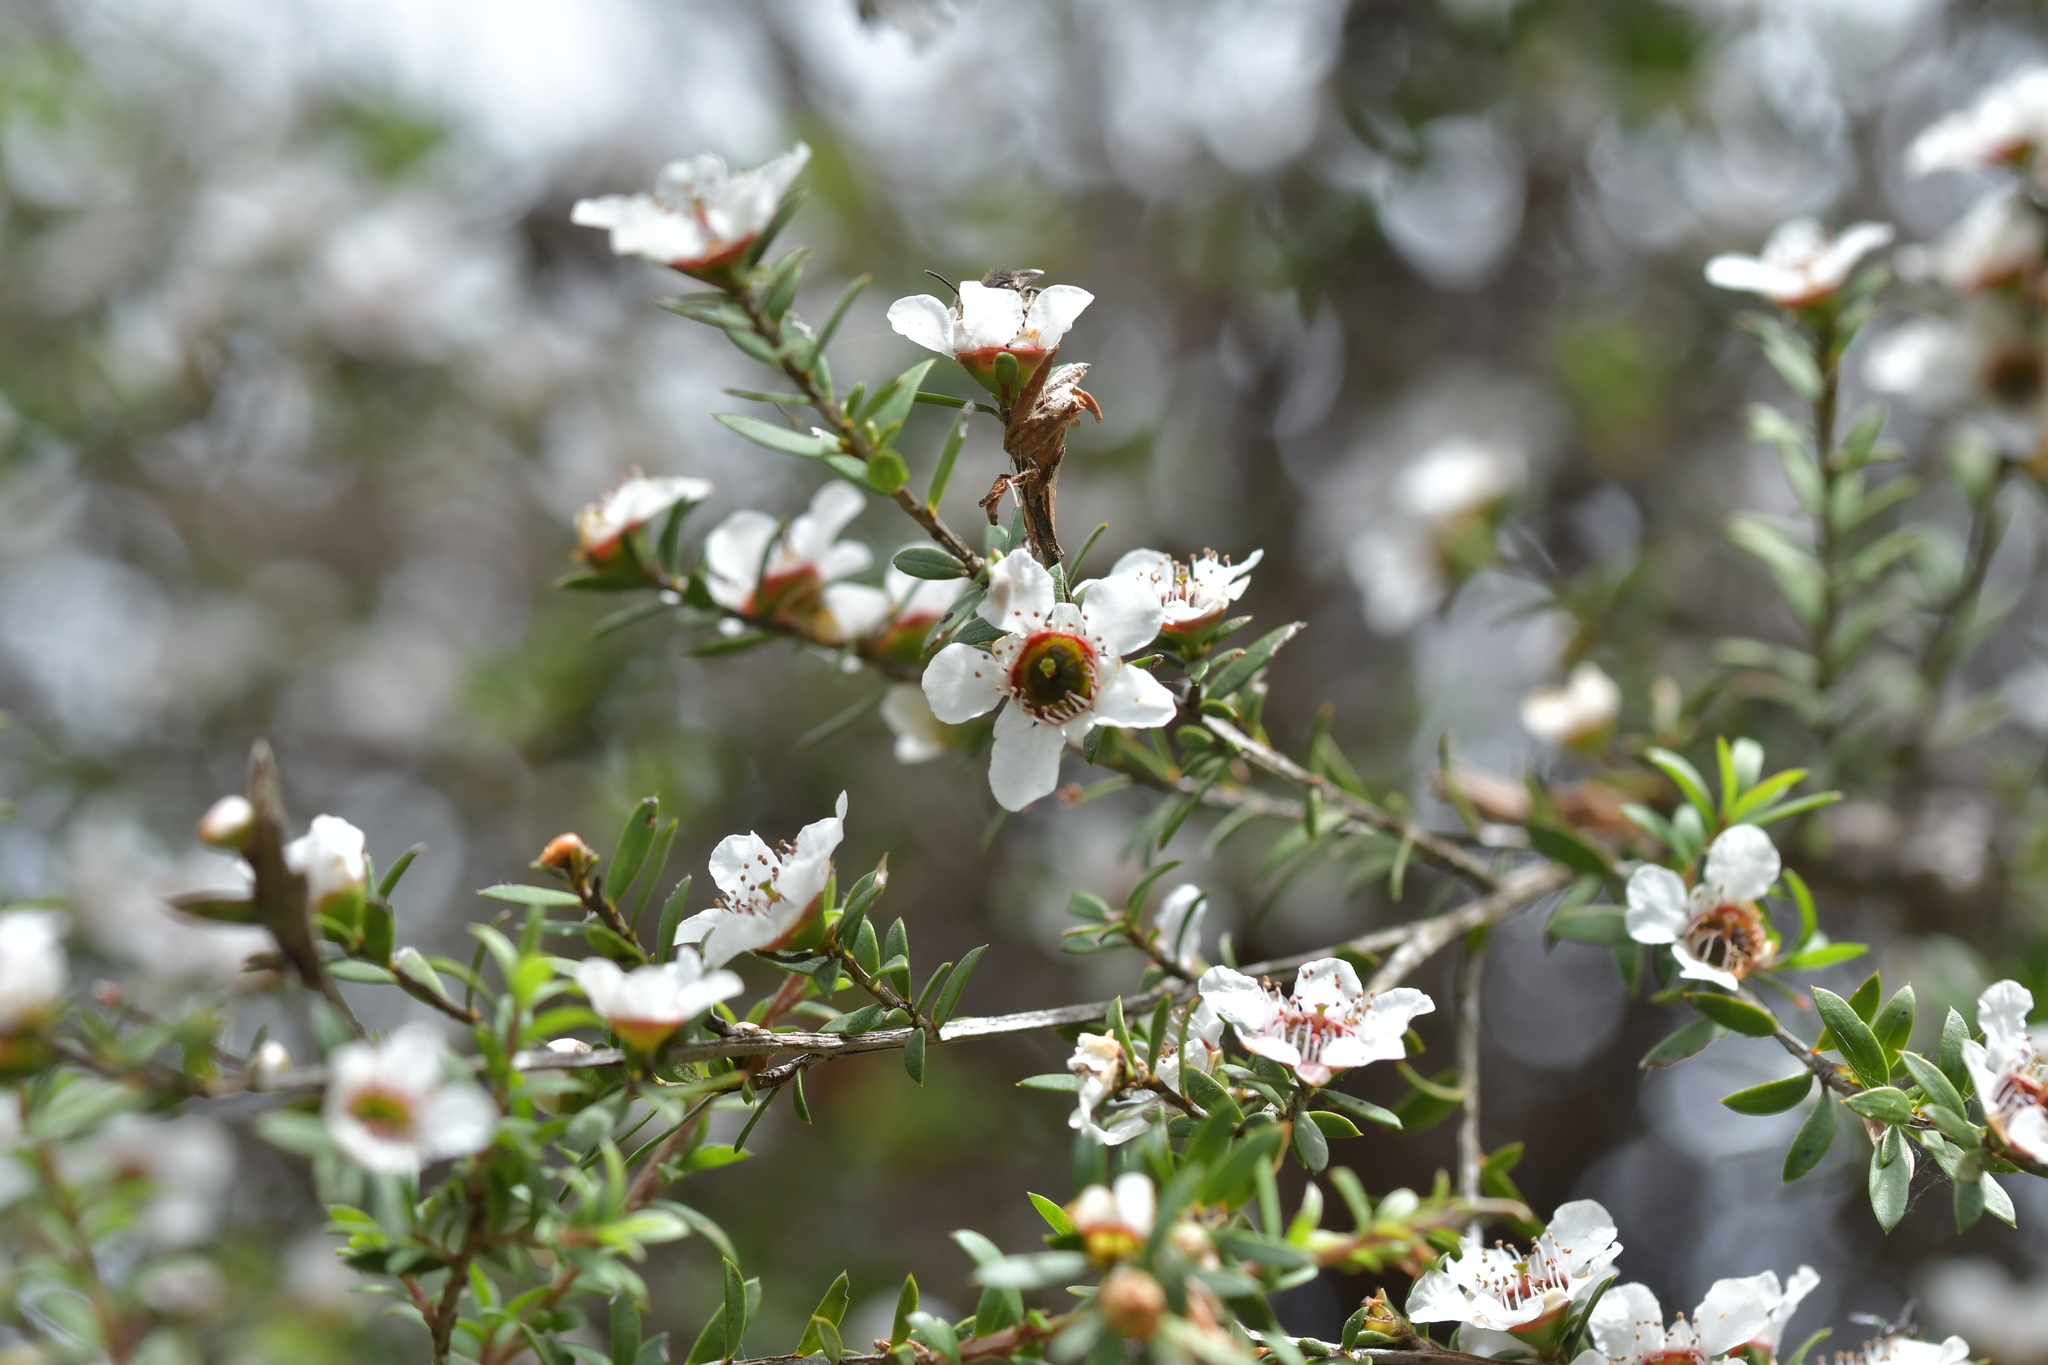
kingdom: Plantae
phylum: Tracheophyta
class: Magnoliopsida
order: Myrtales
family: Myrtaceae
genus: Leptospermum
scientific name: Leptospermum scoparium
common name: Broom tea-tree
